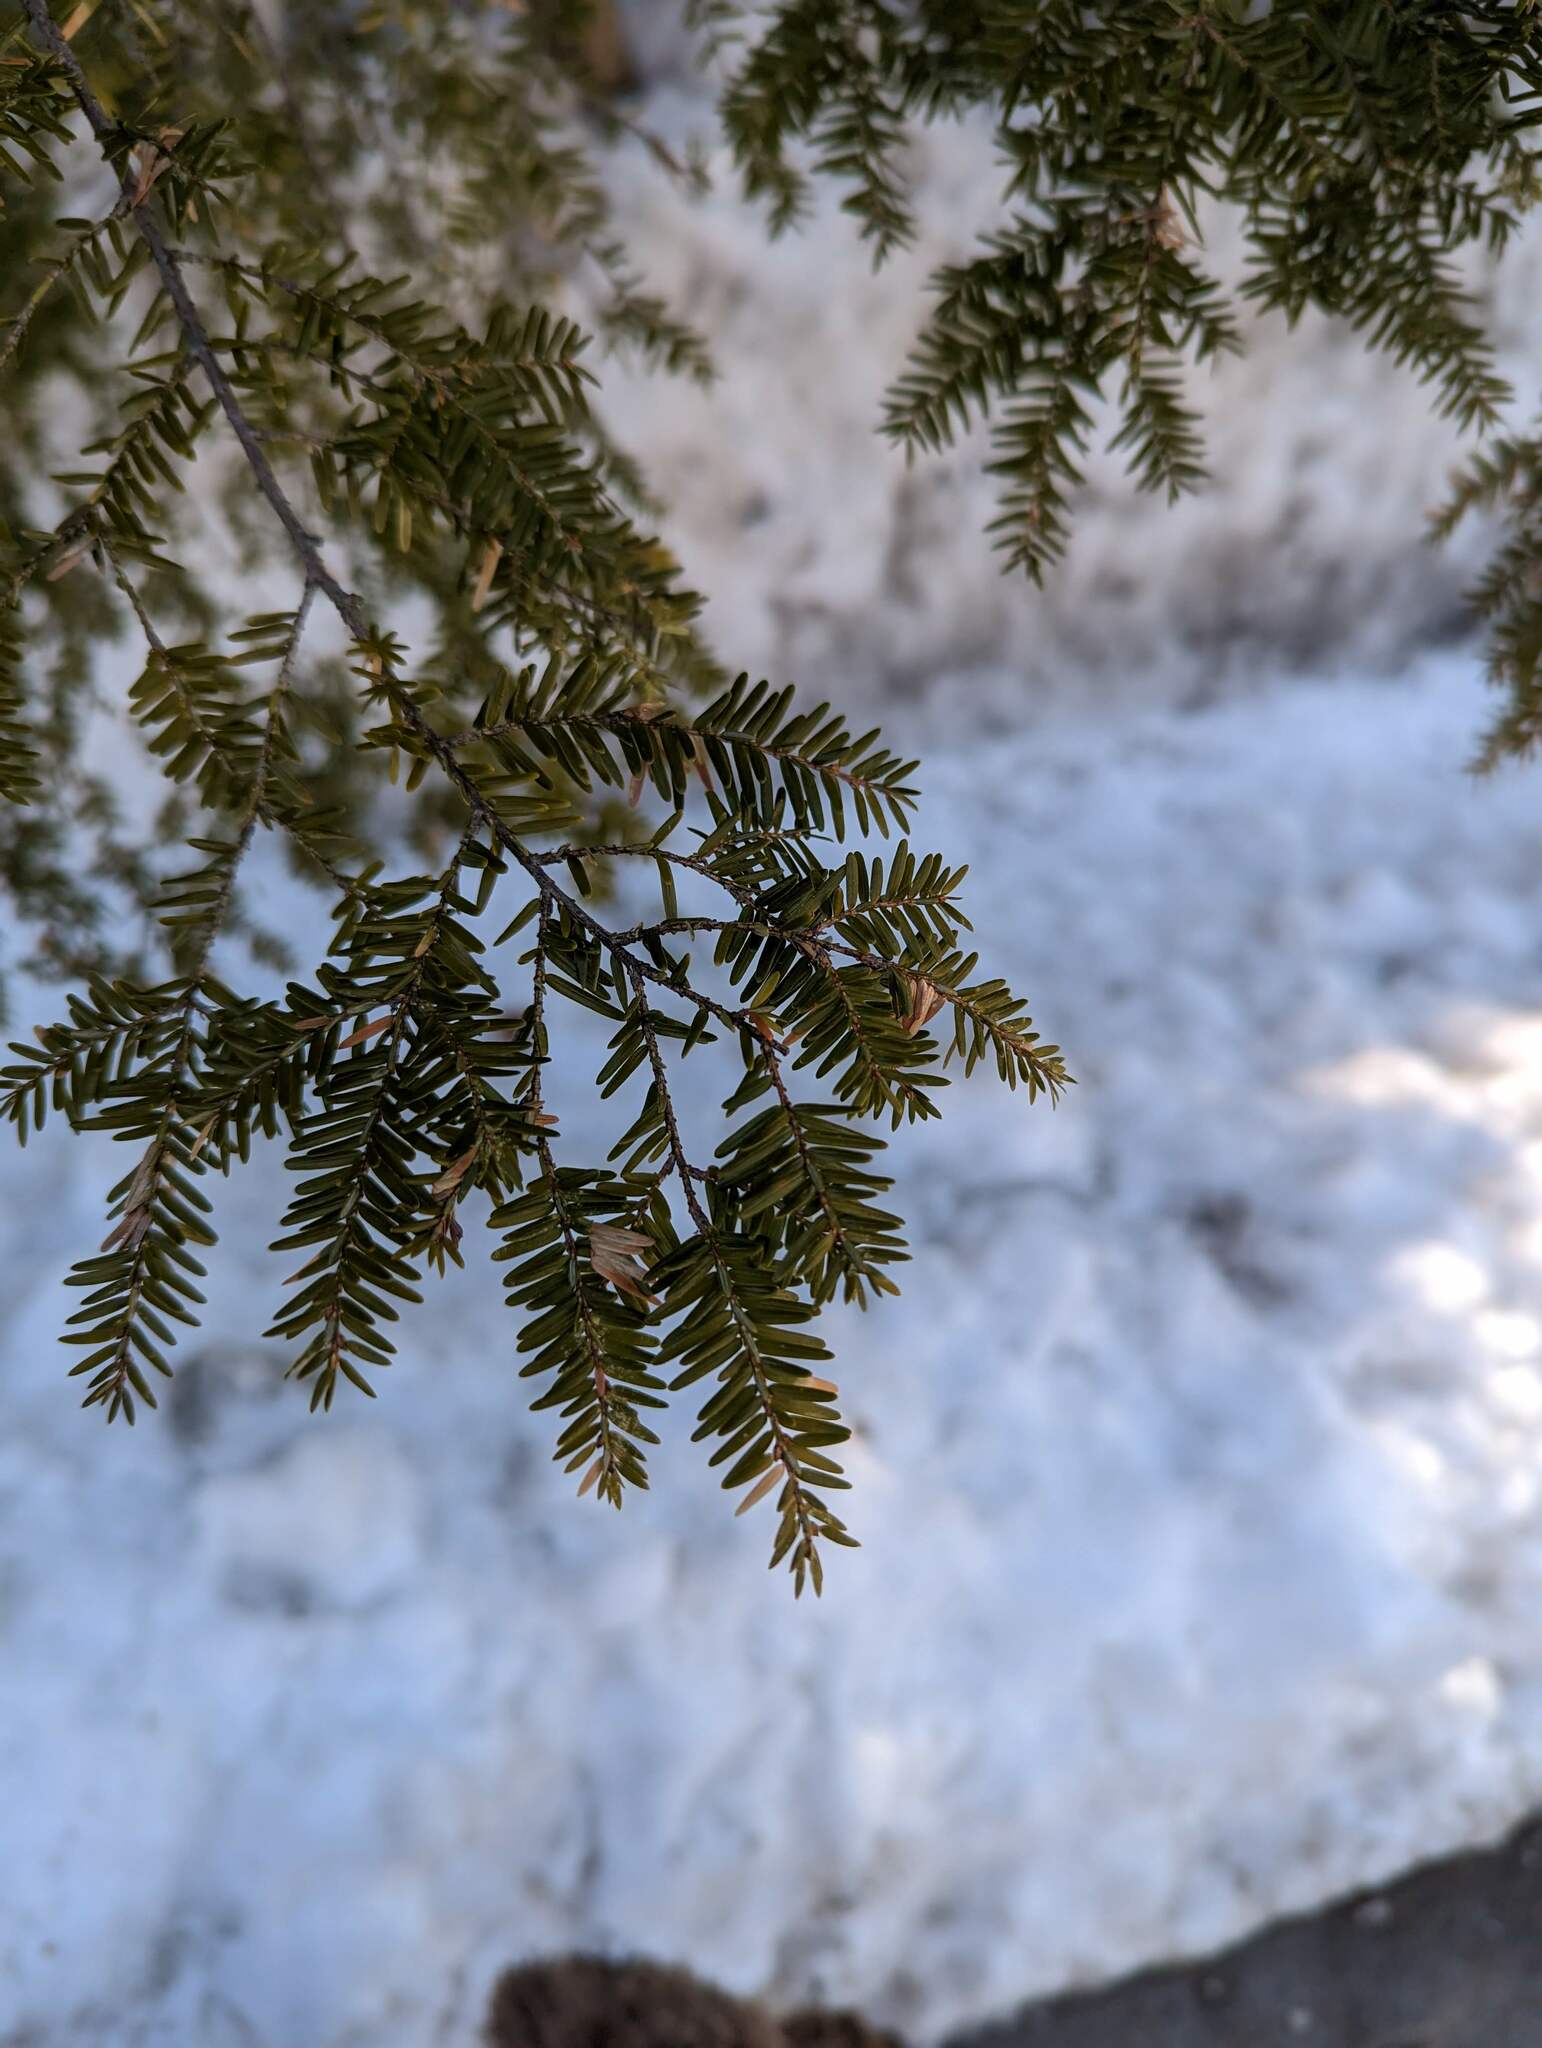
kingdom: Plantae
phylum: Tracheophyta
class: Pinopsida
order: Pinales
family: Pinaceae
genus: Tsuga
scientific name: Tsuga canadensis
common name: Eastern hemlock
